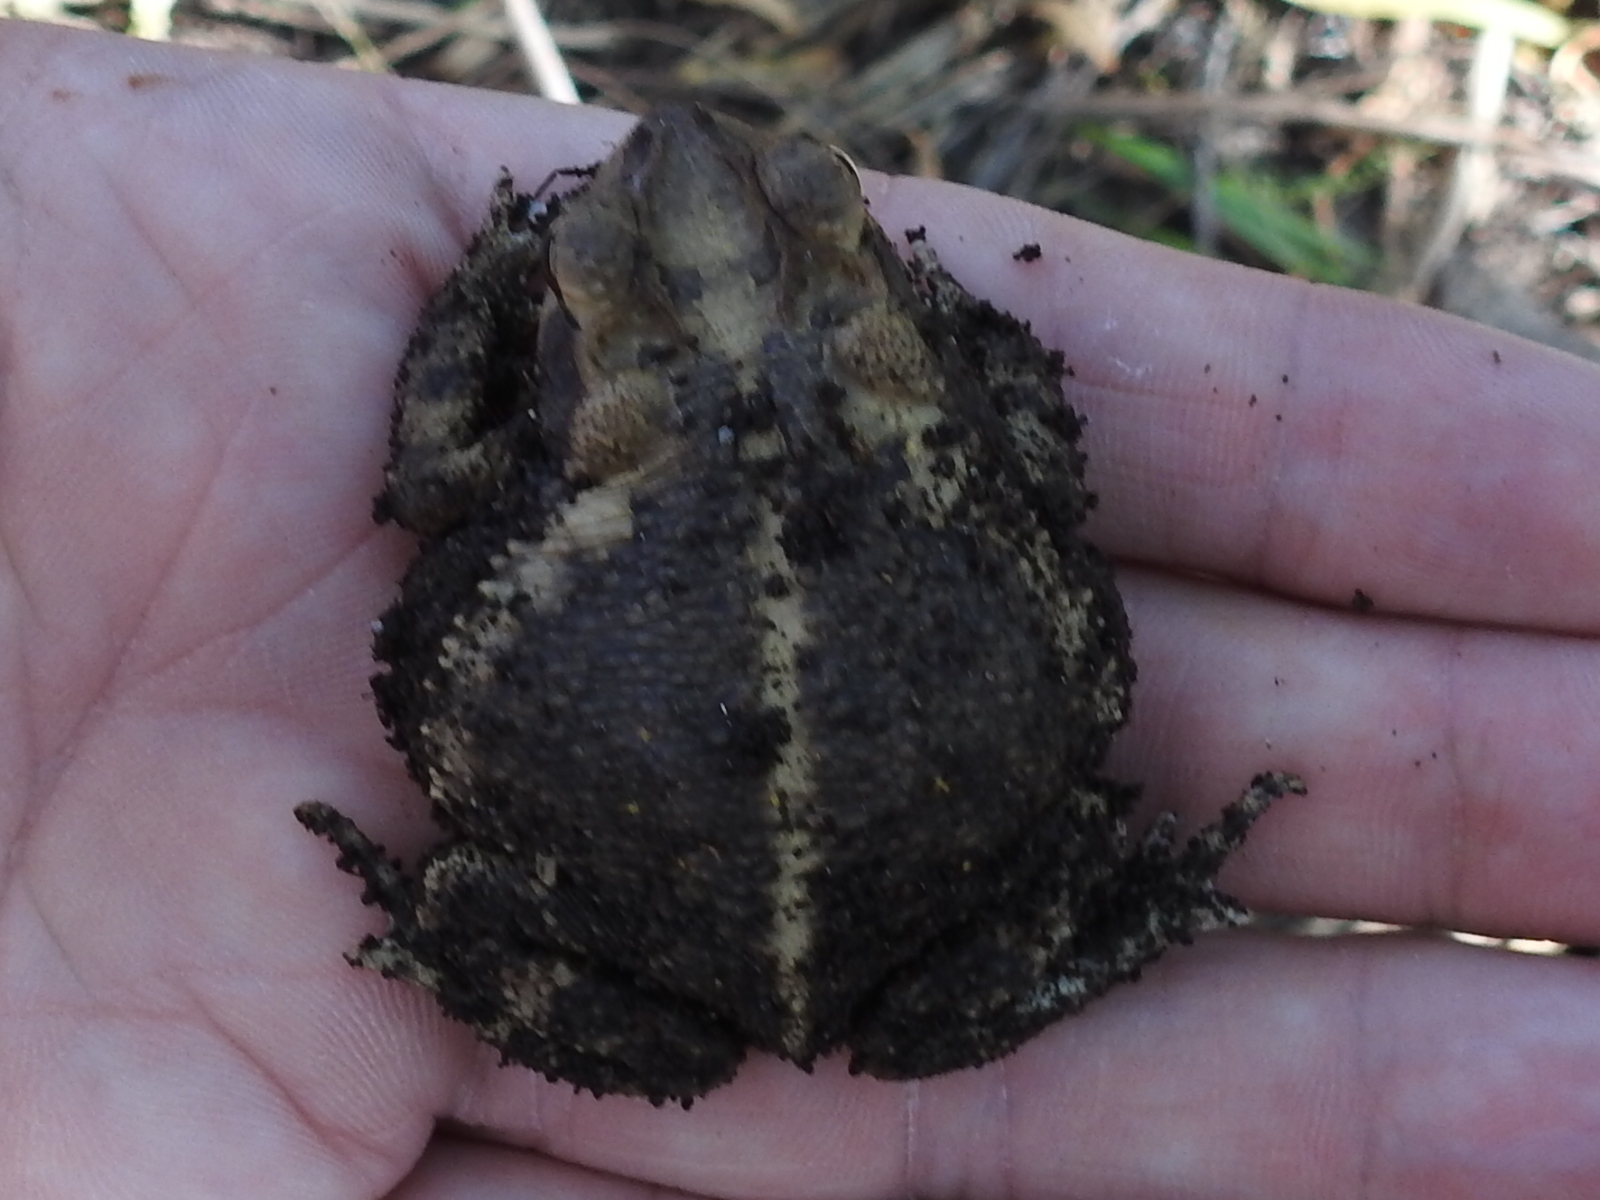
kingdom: Animalia
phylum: Chordata
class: Amphibia
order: Anura
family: Bufonidae
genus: Incilius
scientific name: Incilius nebulifer
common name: Gulf coast toad
